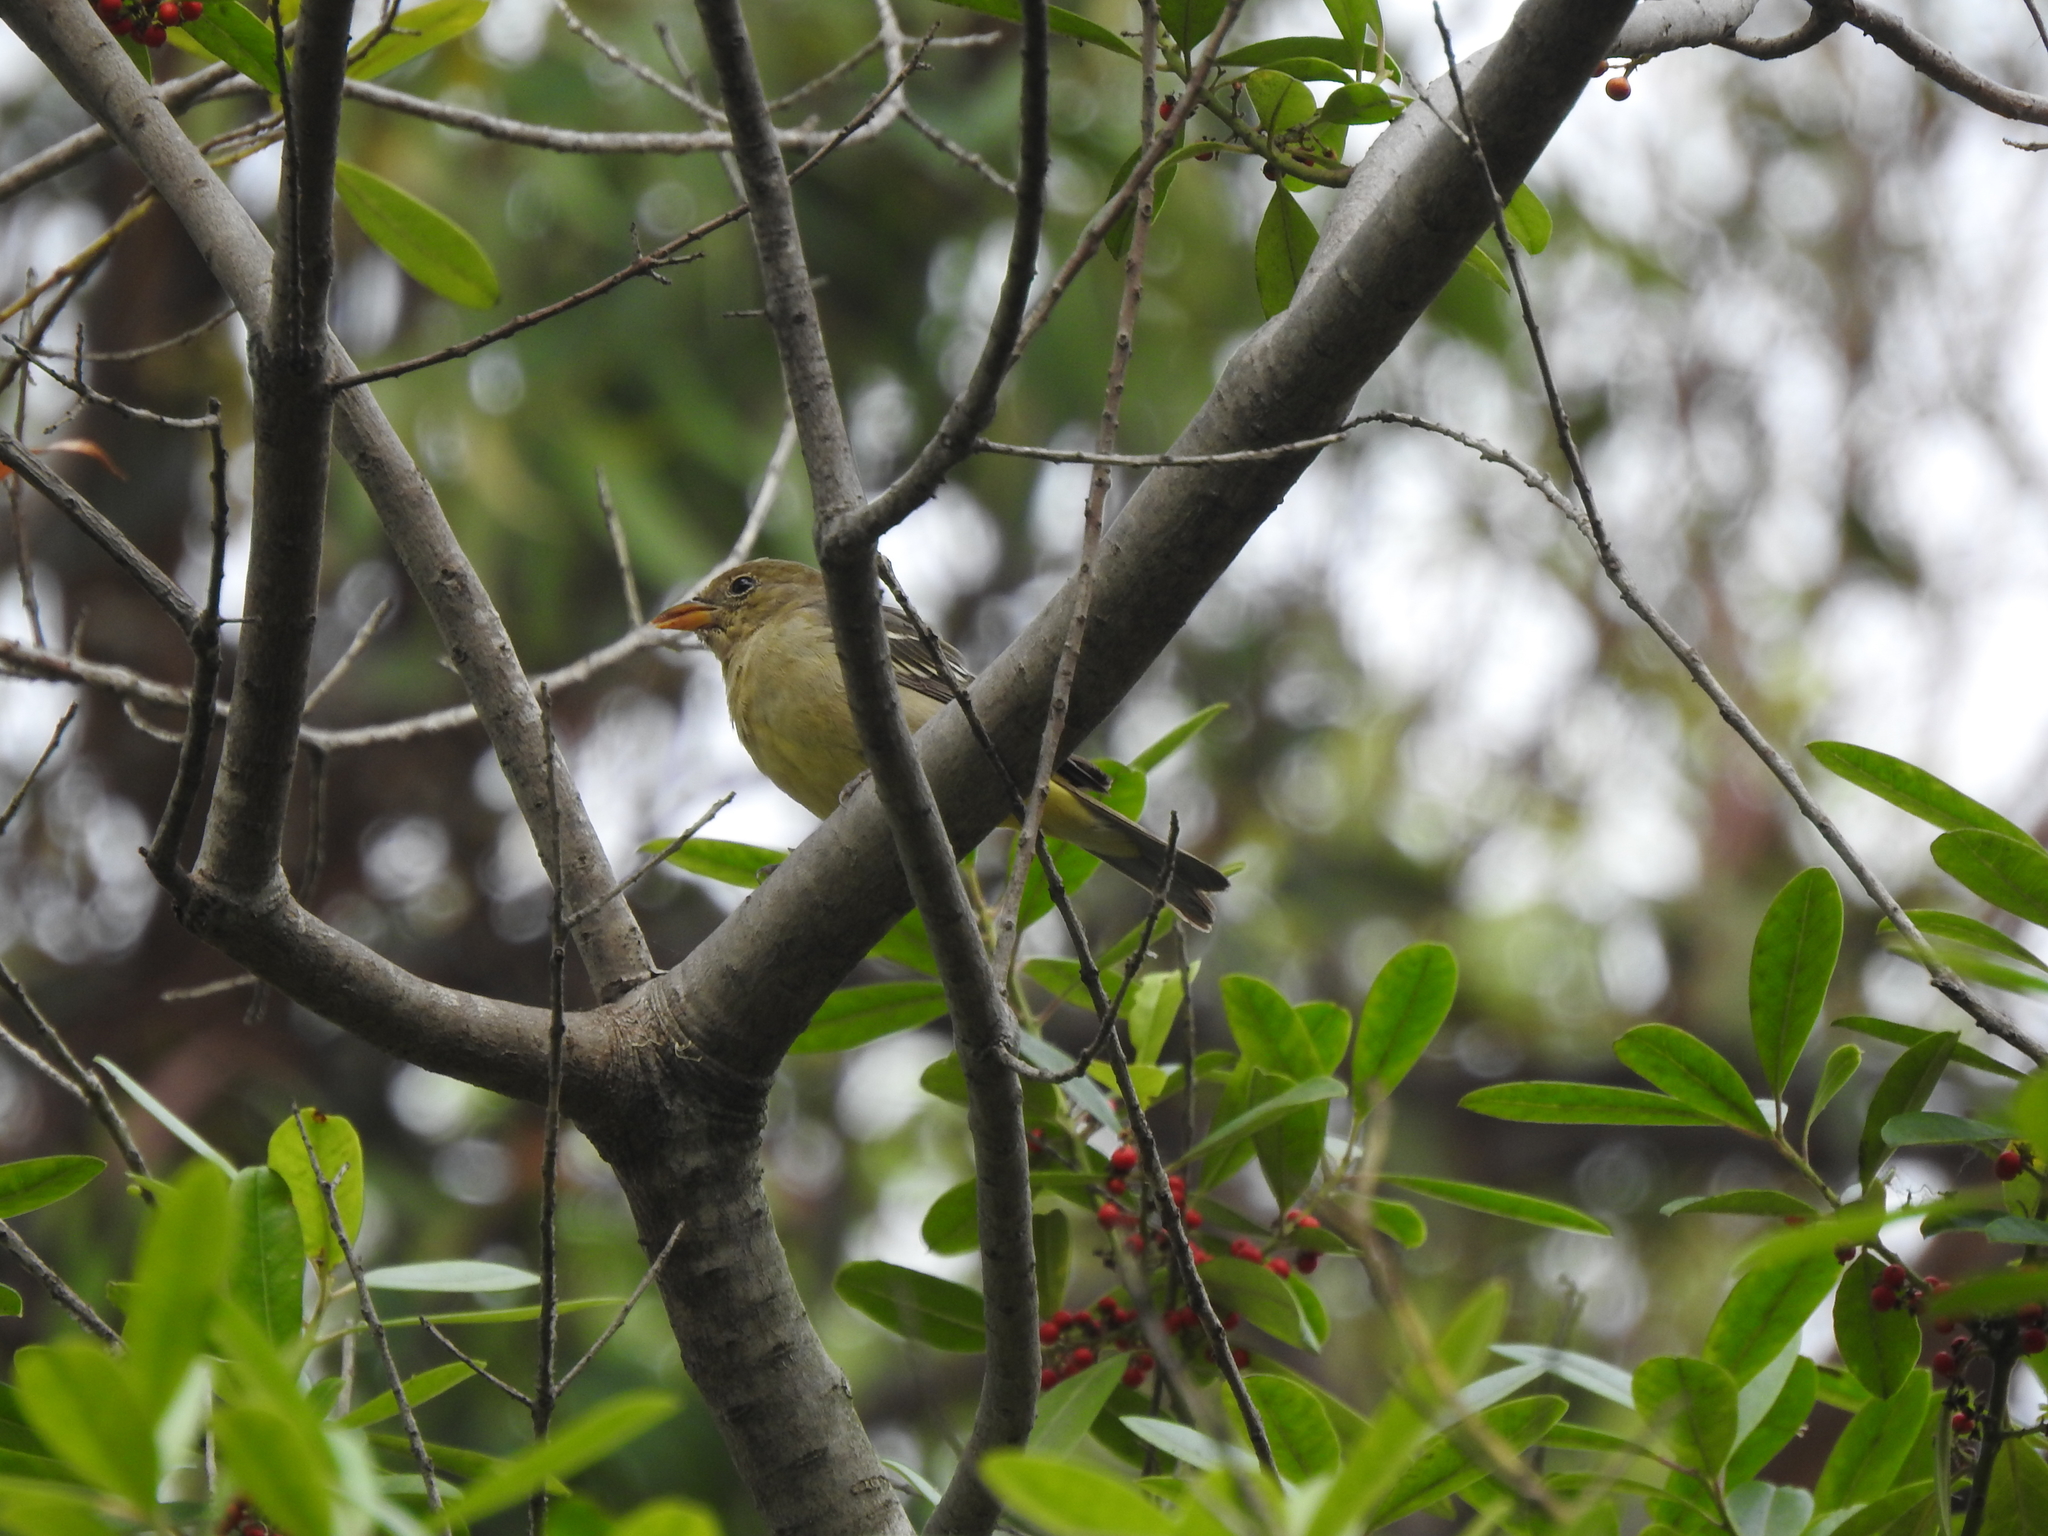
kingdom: Animalia
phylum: Chordata
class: Aves
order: Passeriformes
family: Cardinalidae
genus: Piranga
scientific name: Piranga ludoviciana
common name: Western tanager
